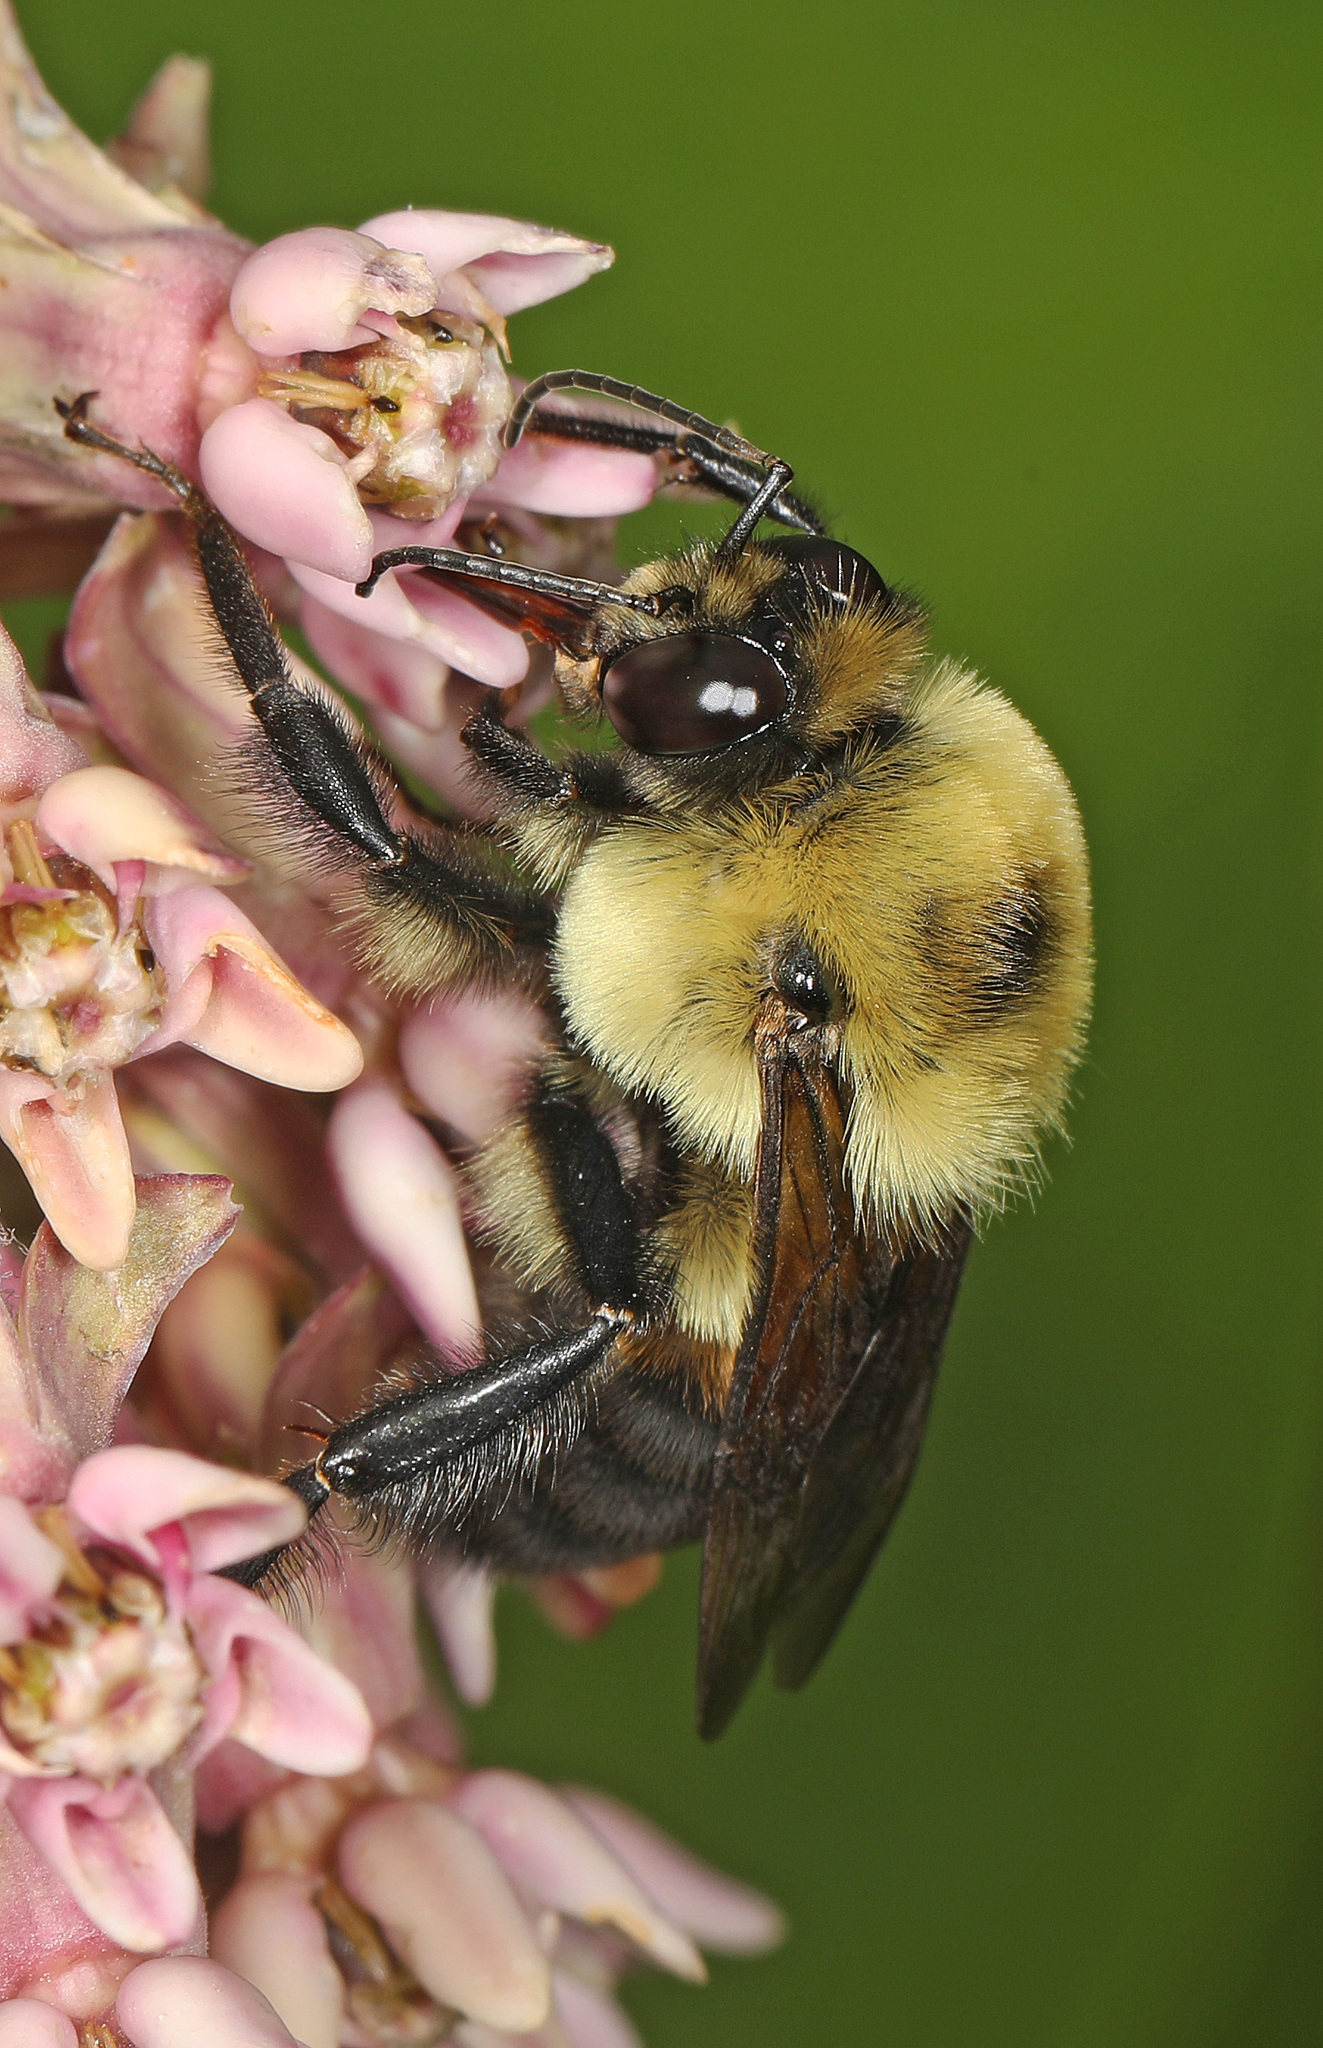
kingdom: Animalia
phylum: Arthropoda
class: Insecta
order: Hymenoptera
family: Apidae
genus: Bombus
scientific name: Bombus griseocollis
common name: Brown-belted bumble bee
